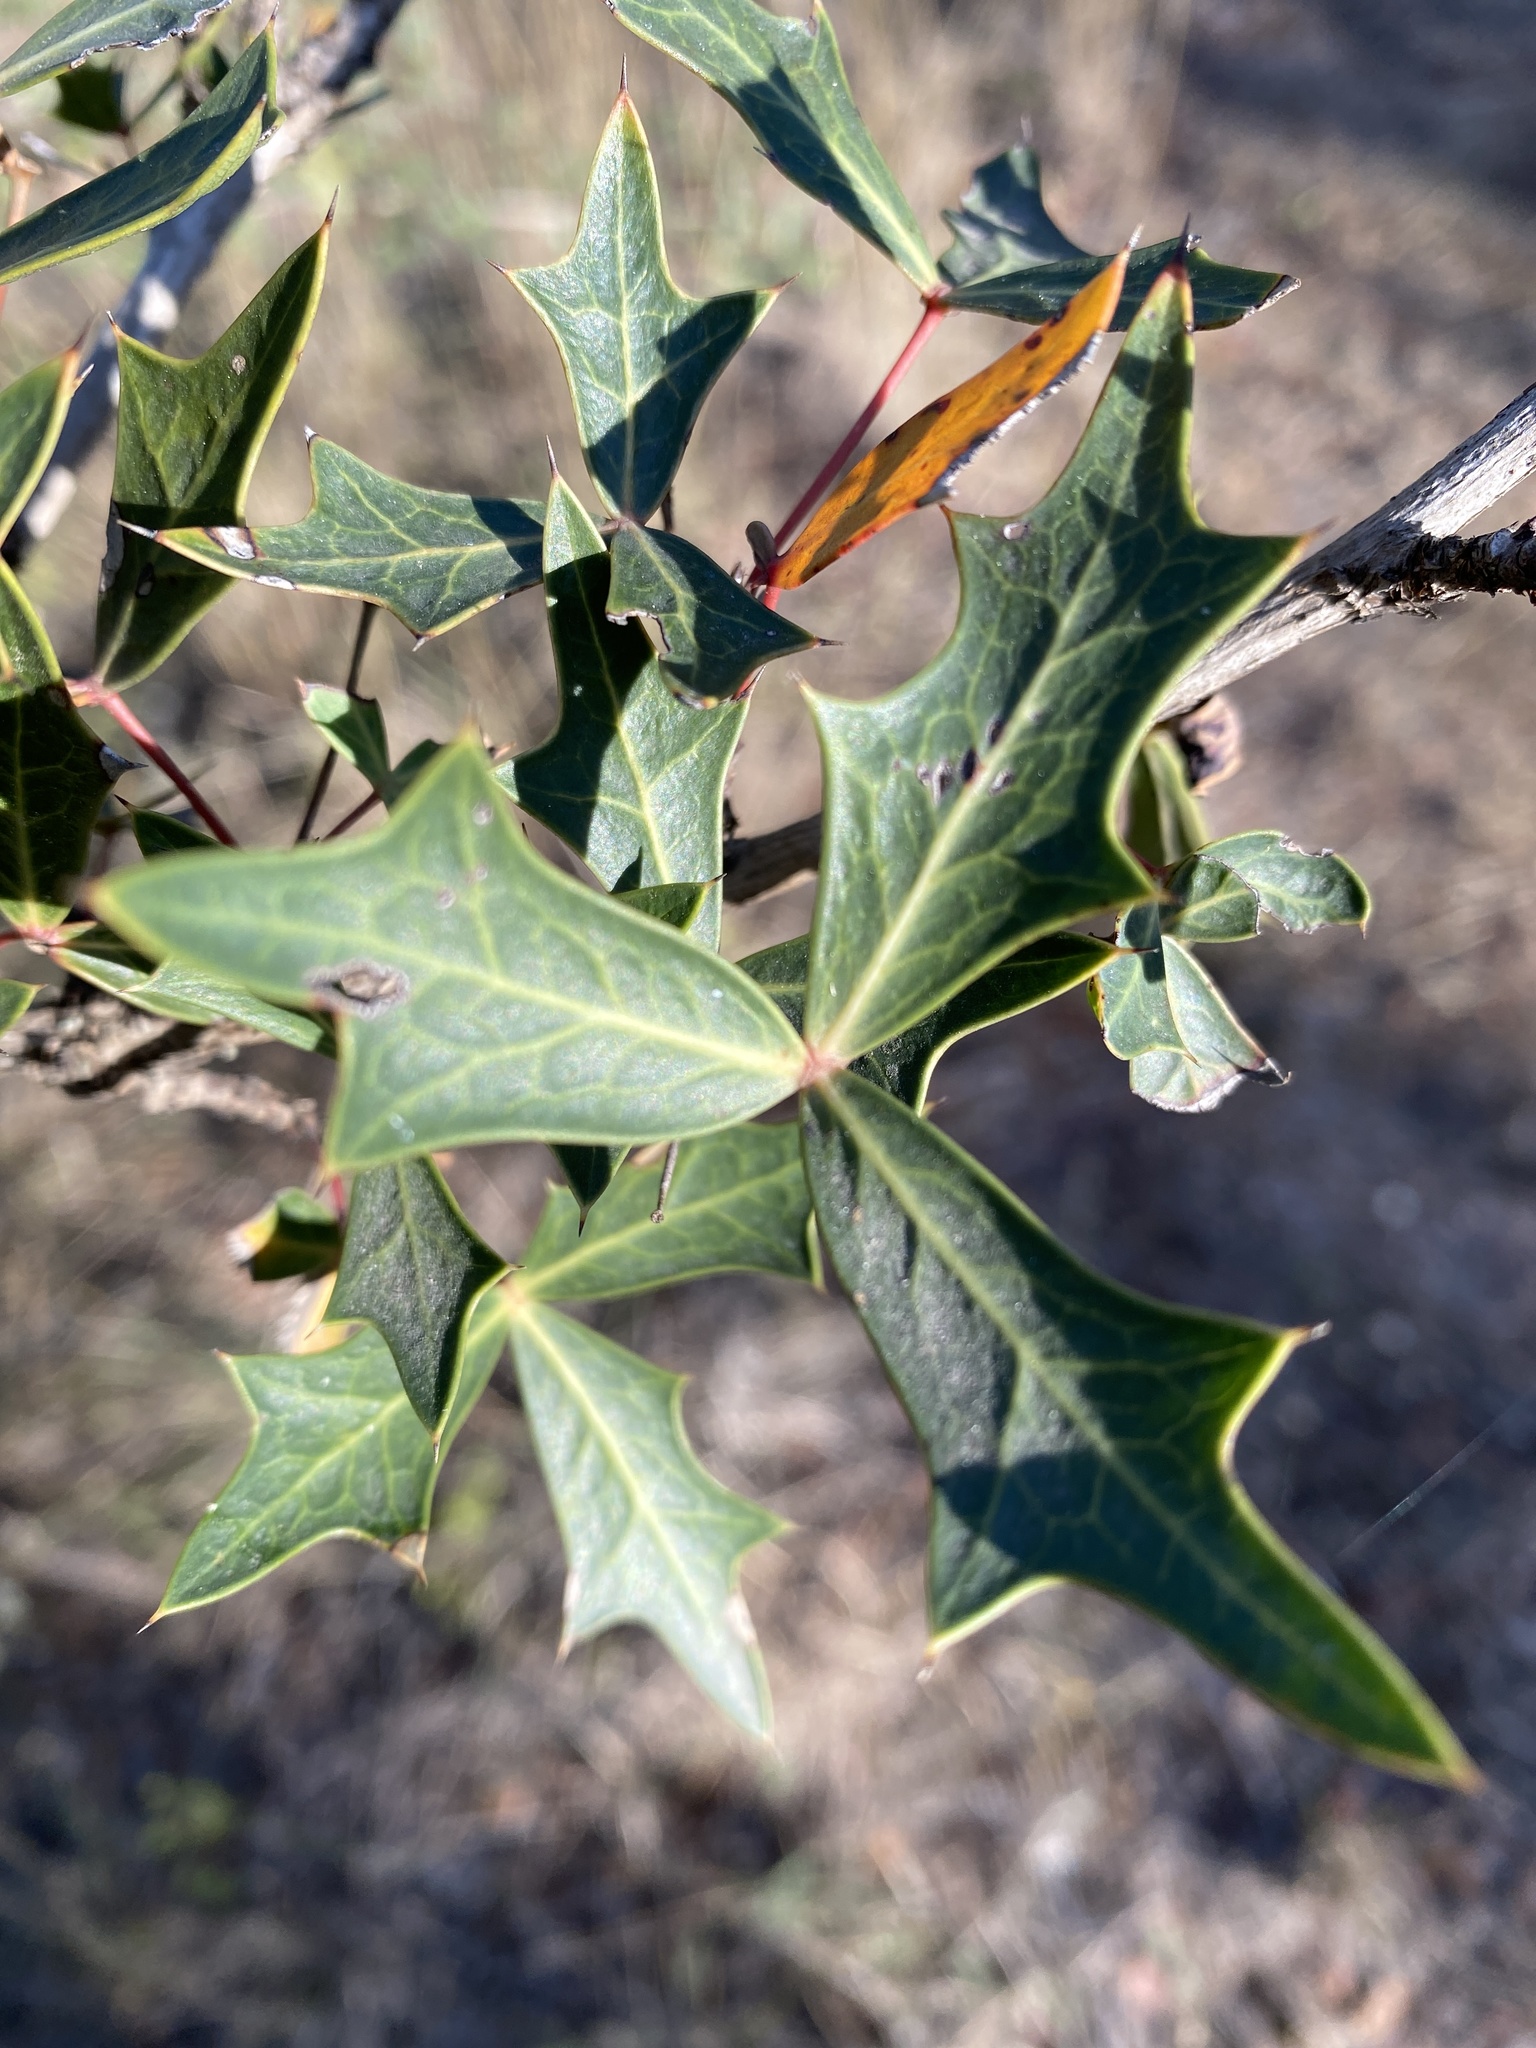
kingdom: Plantae
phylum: Tracheophyta
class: Magnoliopsida
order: Ranunculales
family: Berberidaceae
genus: Alloberberis
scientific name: Alloberberis trifoliolata
